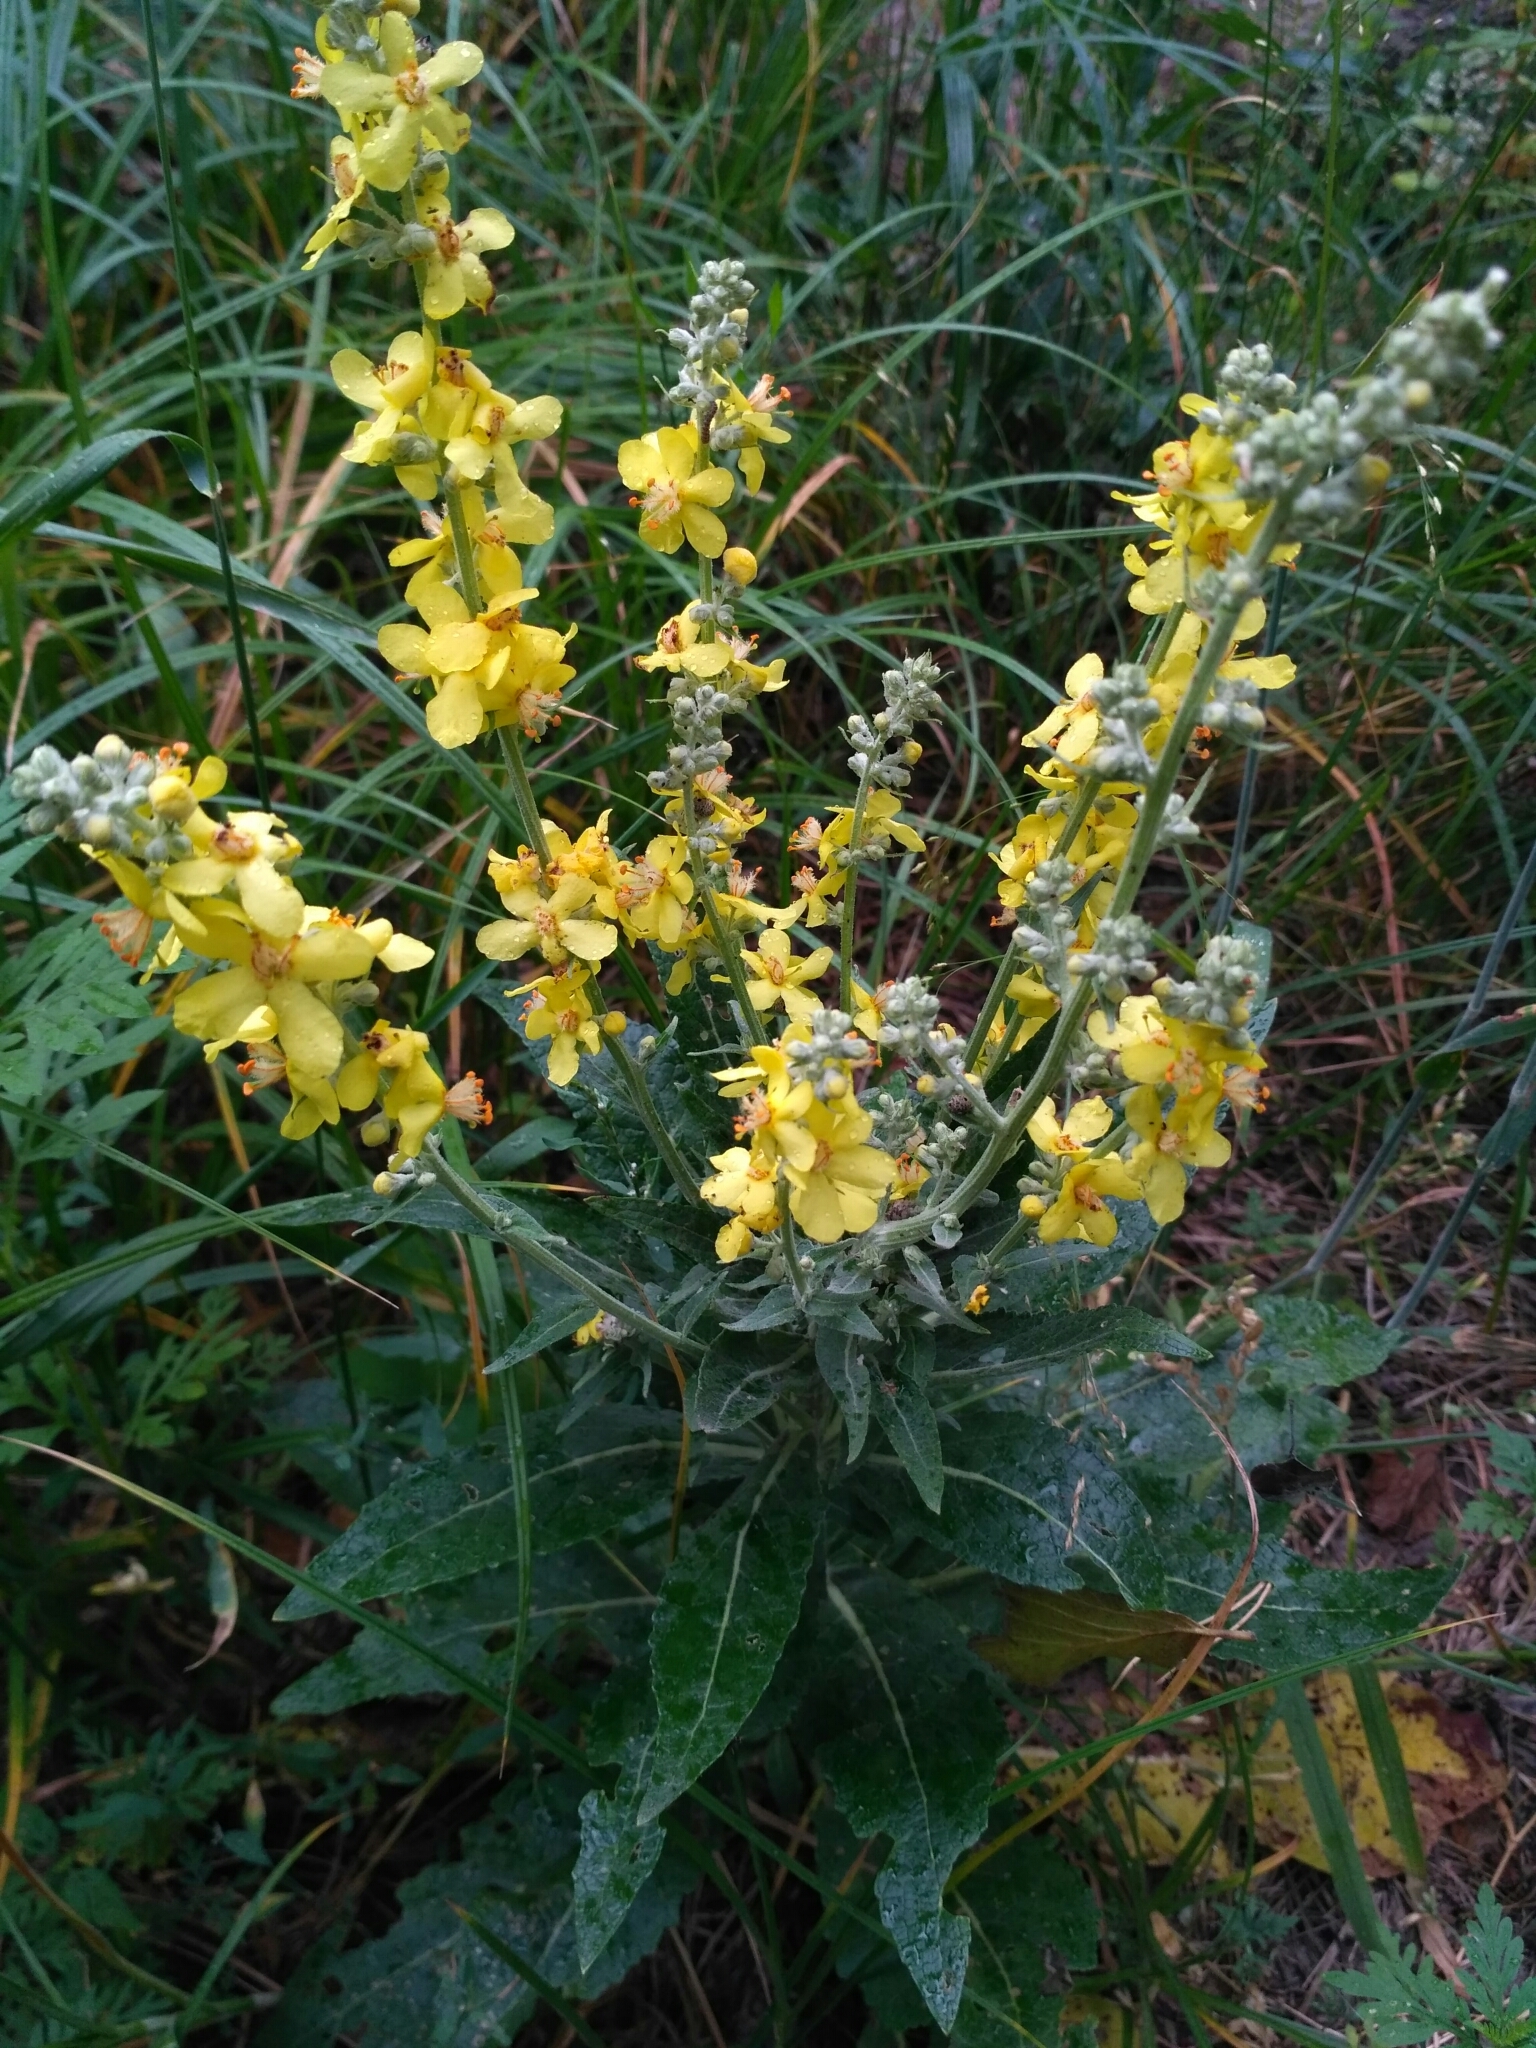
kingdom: Plantae
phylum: Tracheophyta
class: Magnoliopsida
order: Lamiales
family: Scrophulariaceae
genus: Verbascum
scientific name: Verbascum lychnitis
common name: White mullein
